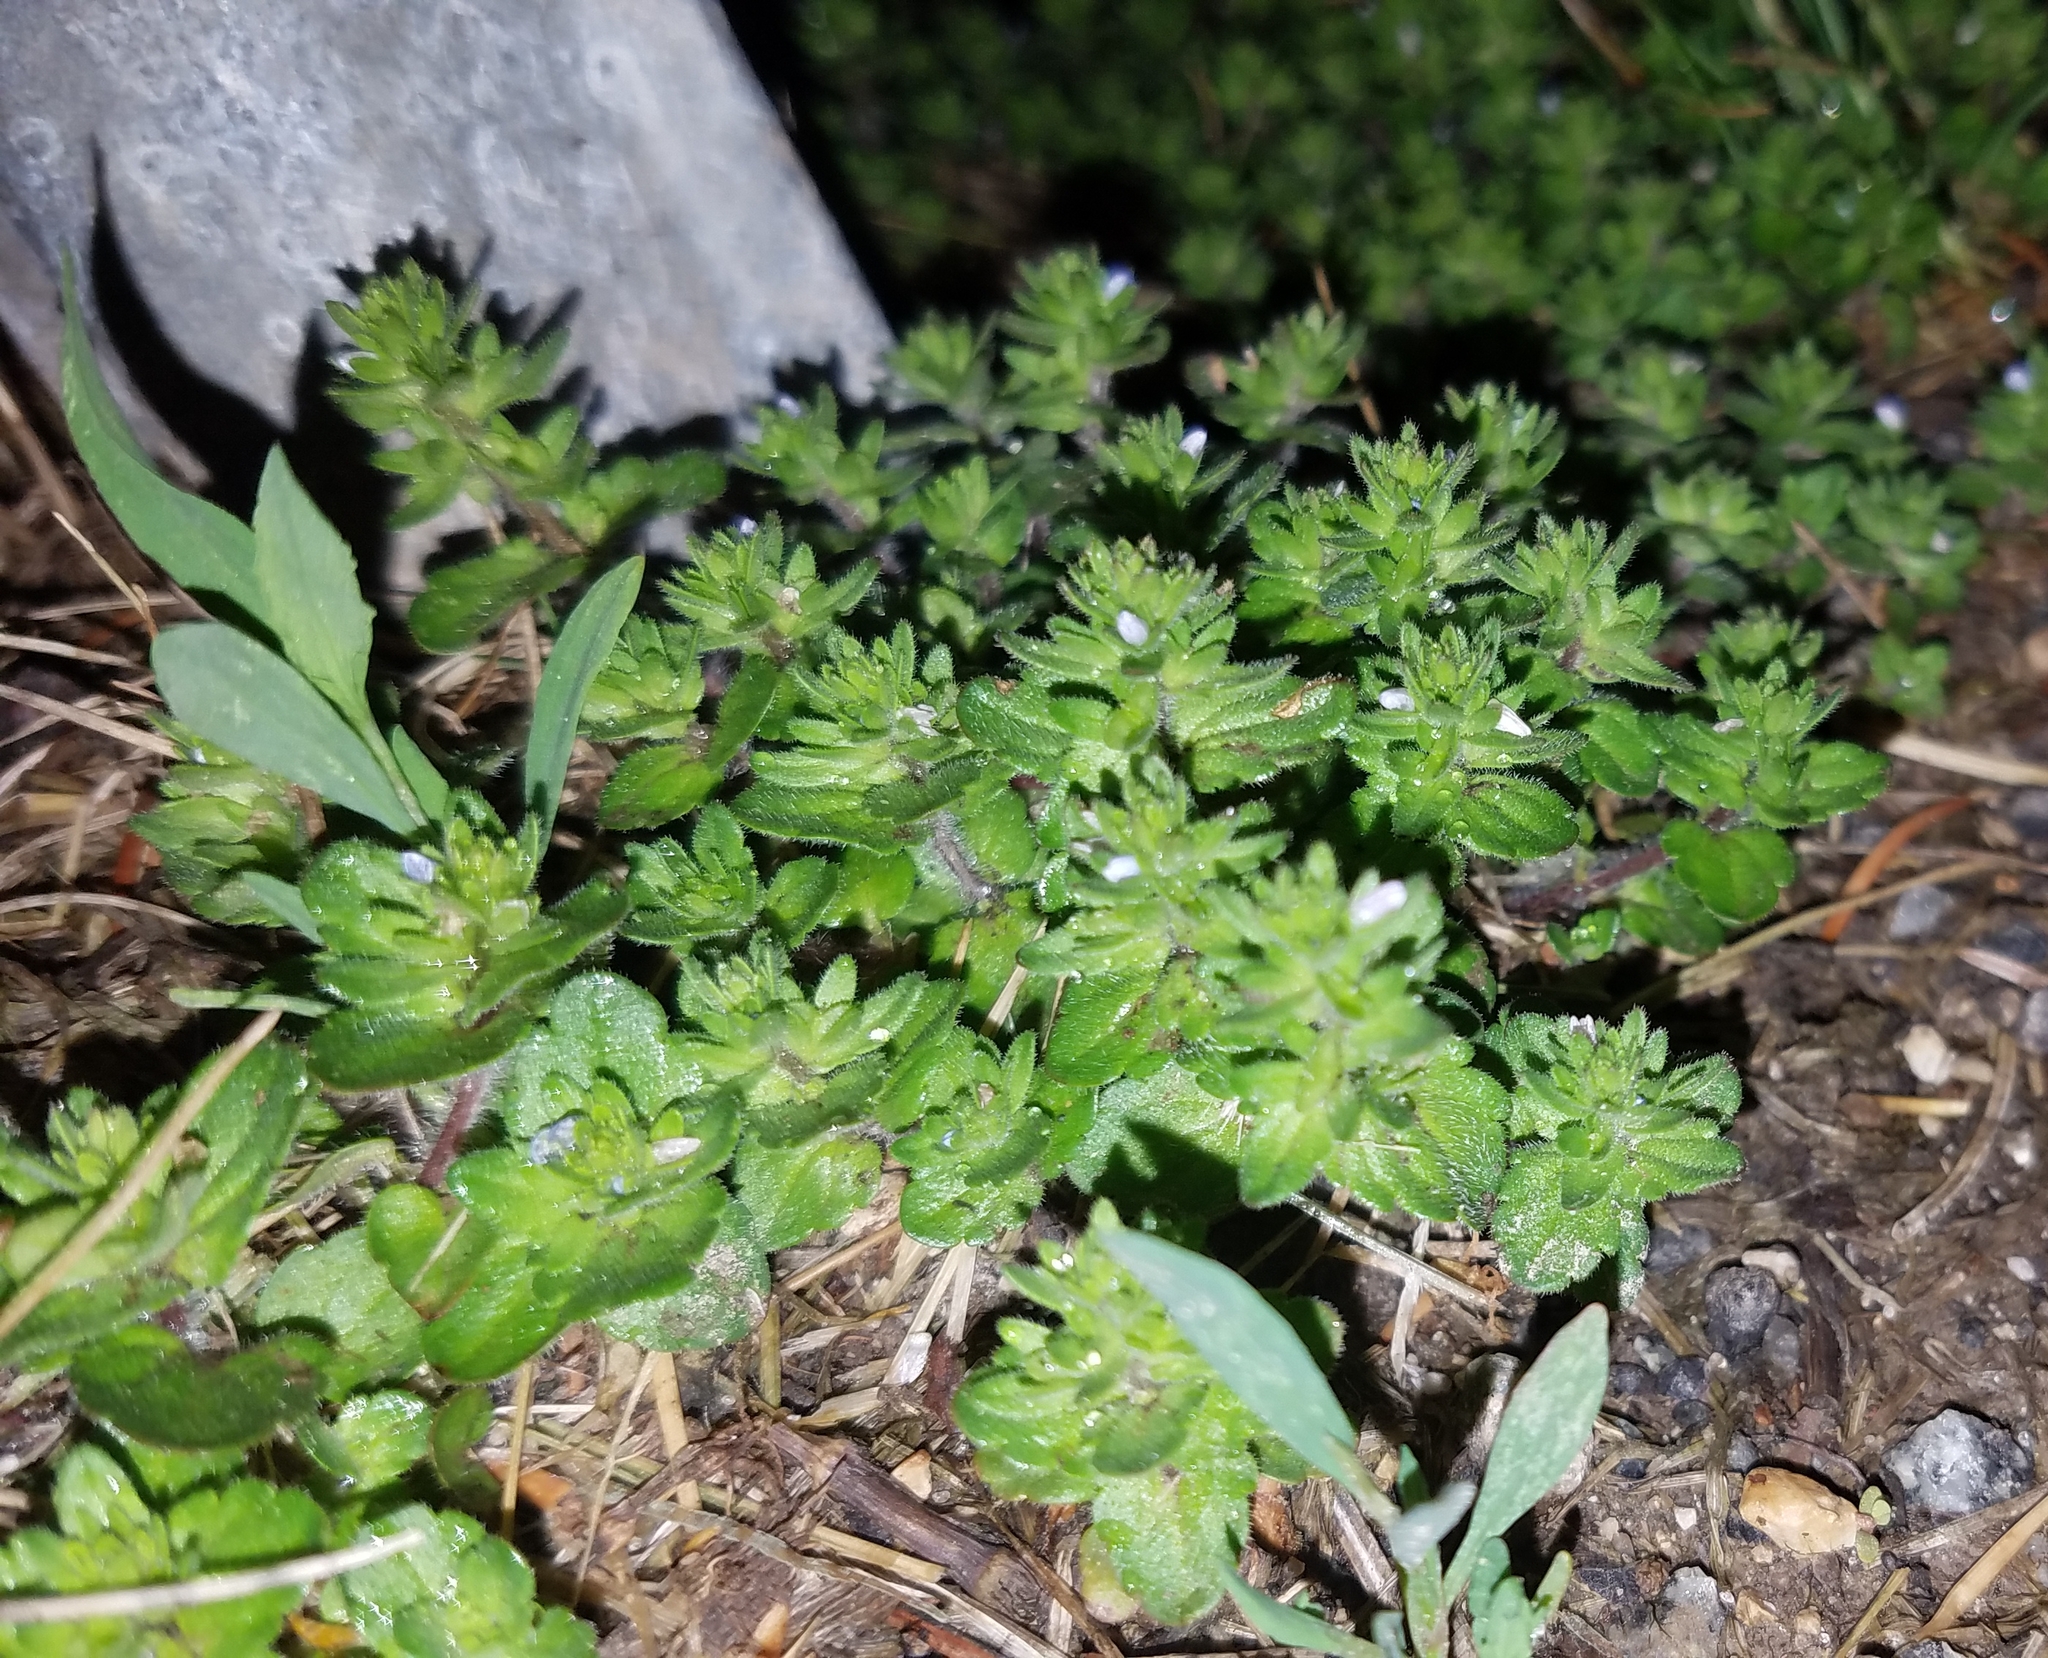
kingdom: Plantae
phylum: Tracheophyta
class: Magnoliopsida
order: Lamiales
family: Plantaginaceae
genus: Veronica
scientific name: Veronica arvensis
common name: Corn speedwell
